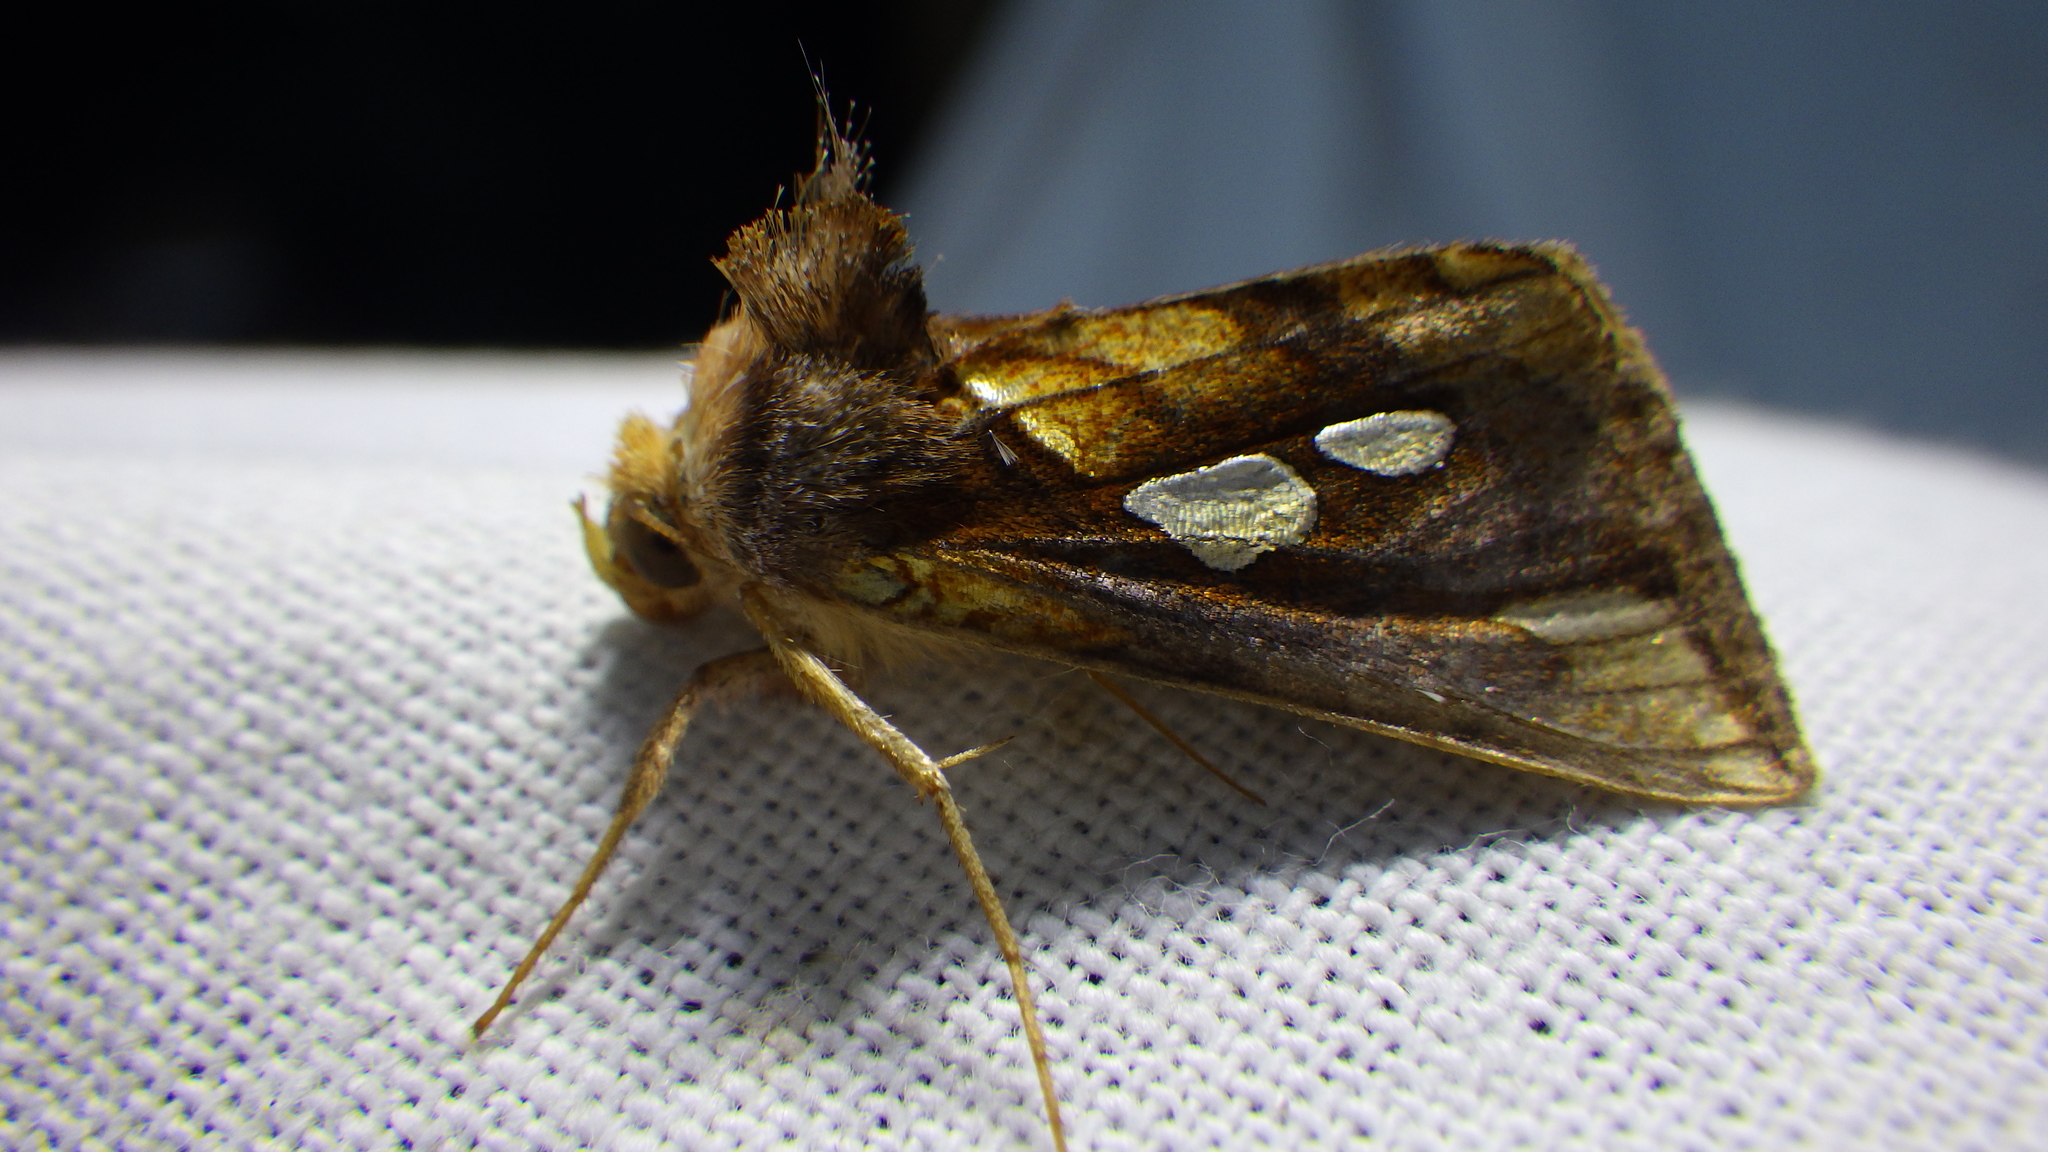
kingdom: Animalia
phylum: Arthropoda
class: Insecta
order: Lepidoptera
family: Noctuidae
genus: Plusia
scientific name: Plusia putnami
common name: Lempke's gold spot
